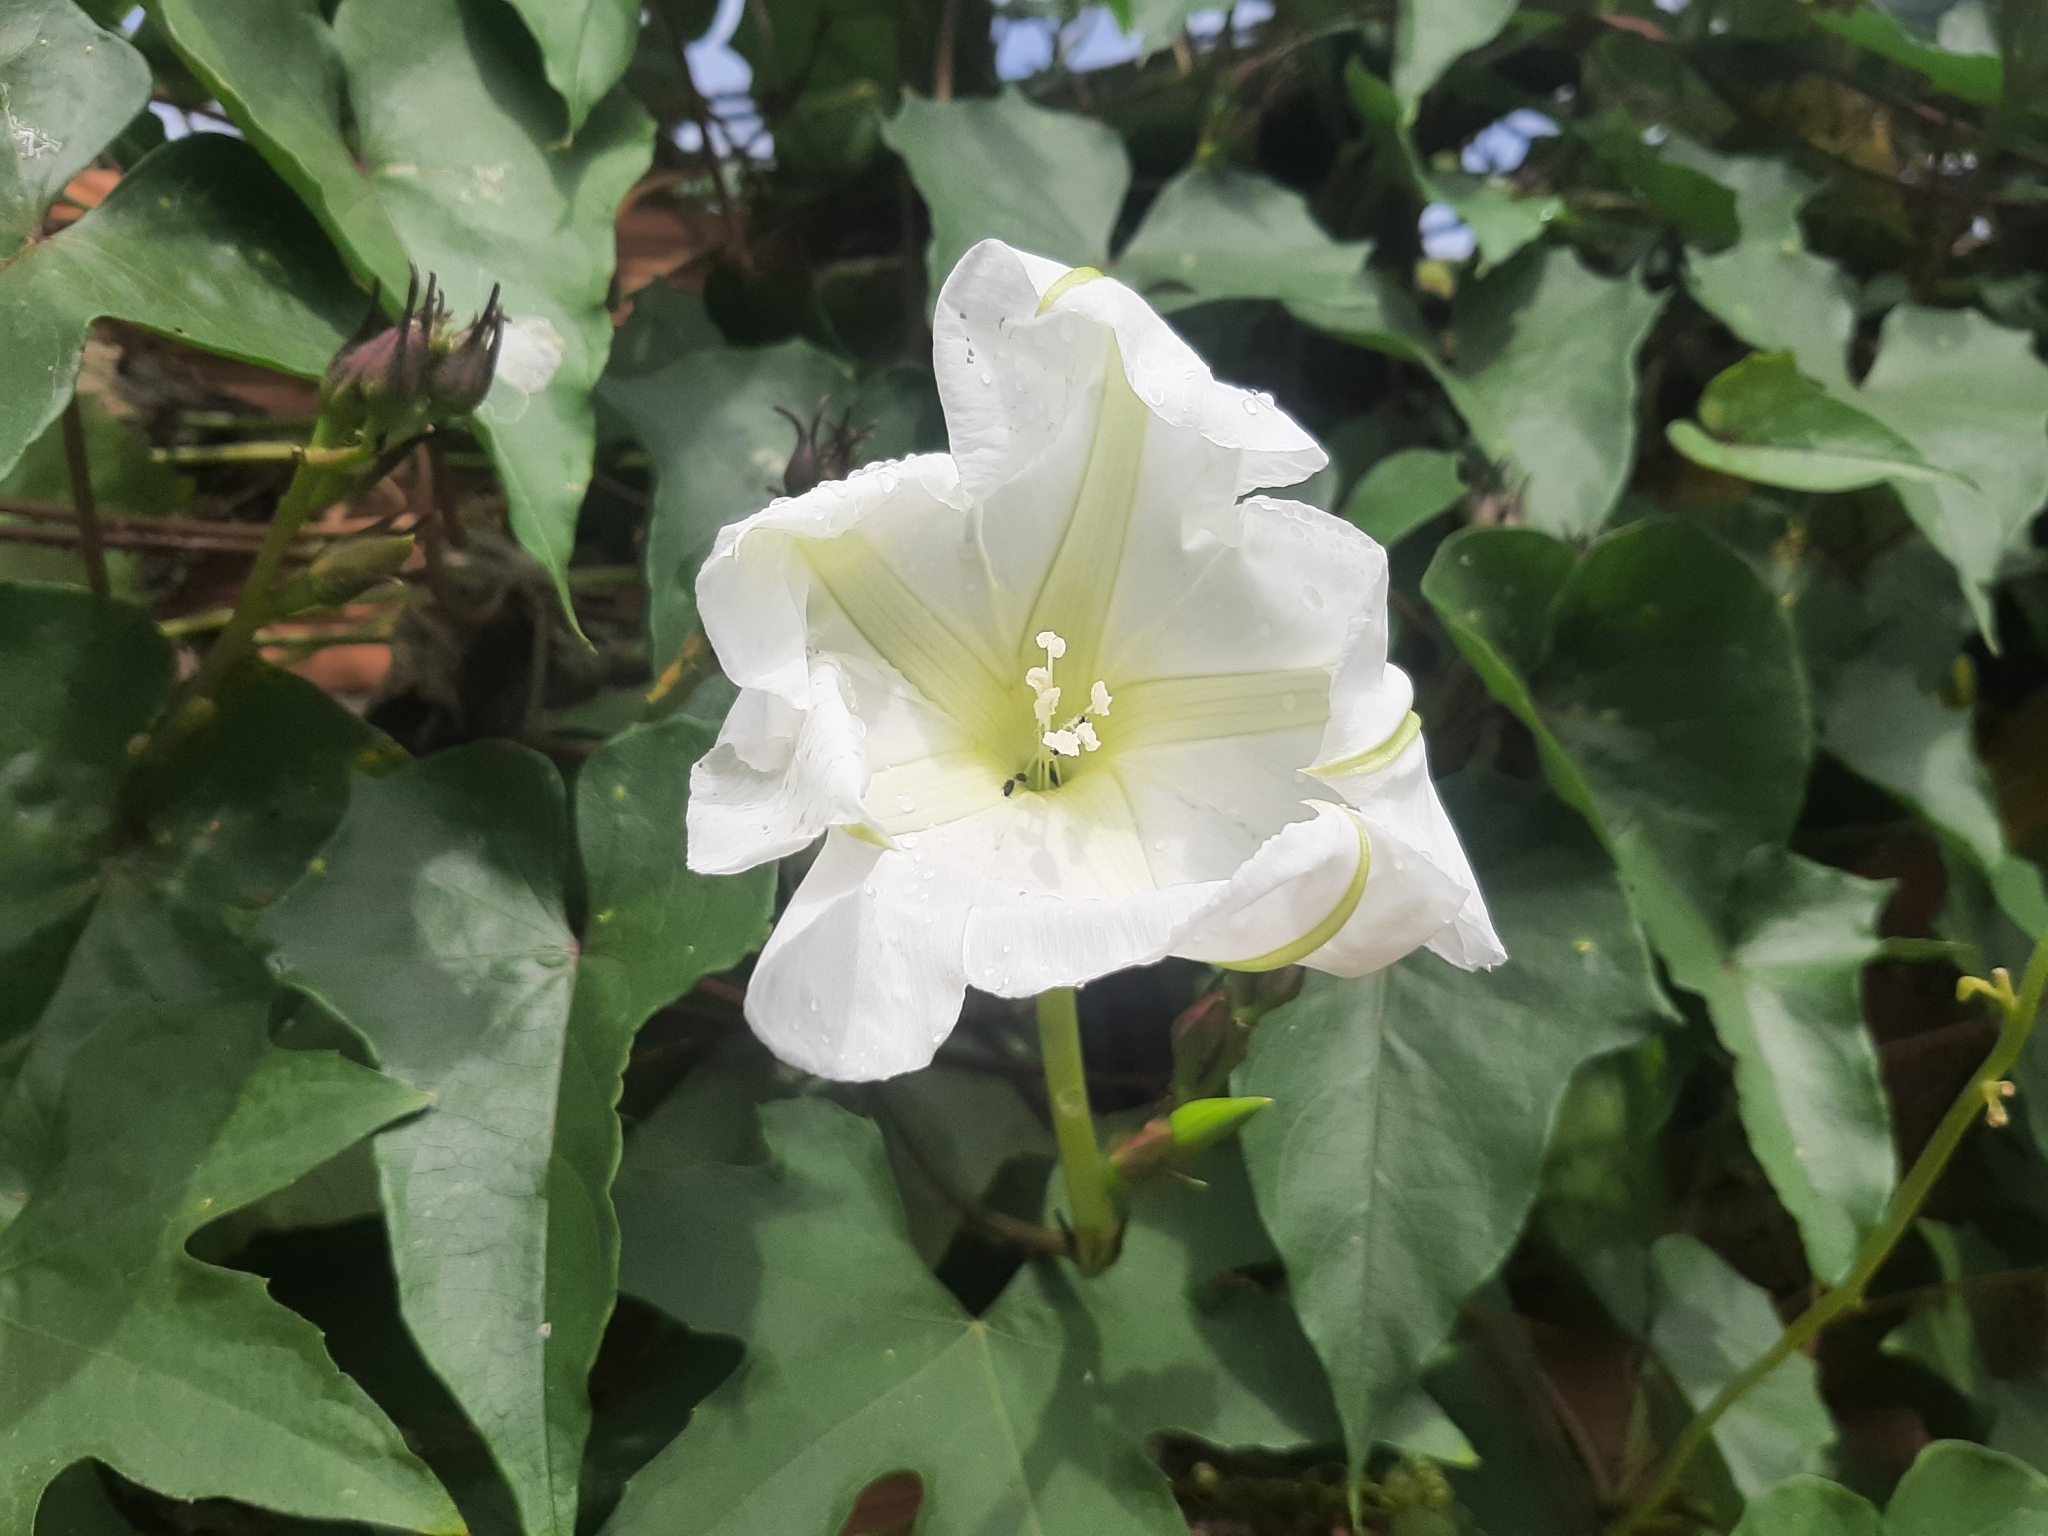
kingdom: Plantae
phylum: Tracheophyta
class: Magnoliopsida
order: Solanales
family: Convolvulaceae
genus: Ipomoea
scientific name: Ipomoea alba
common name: Moonflower
